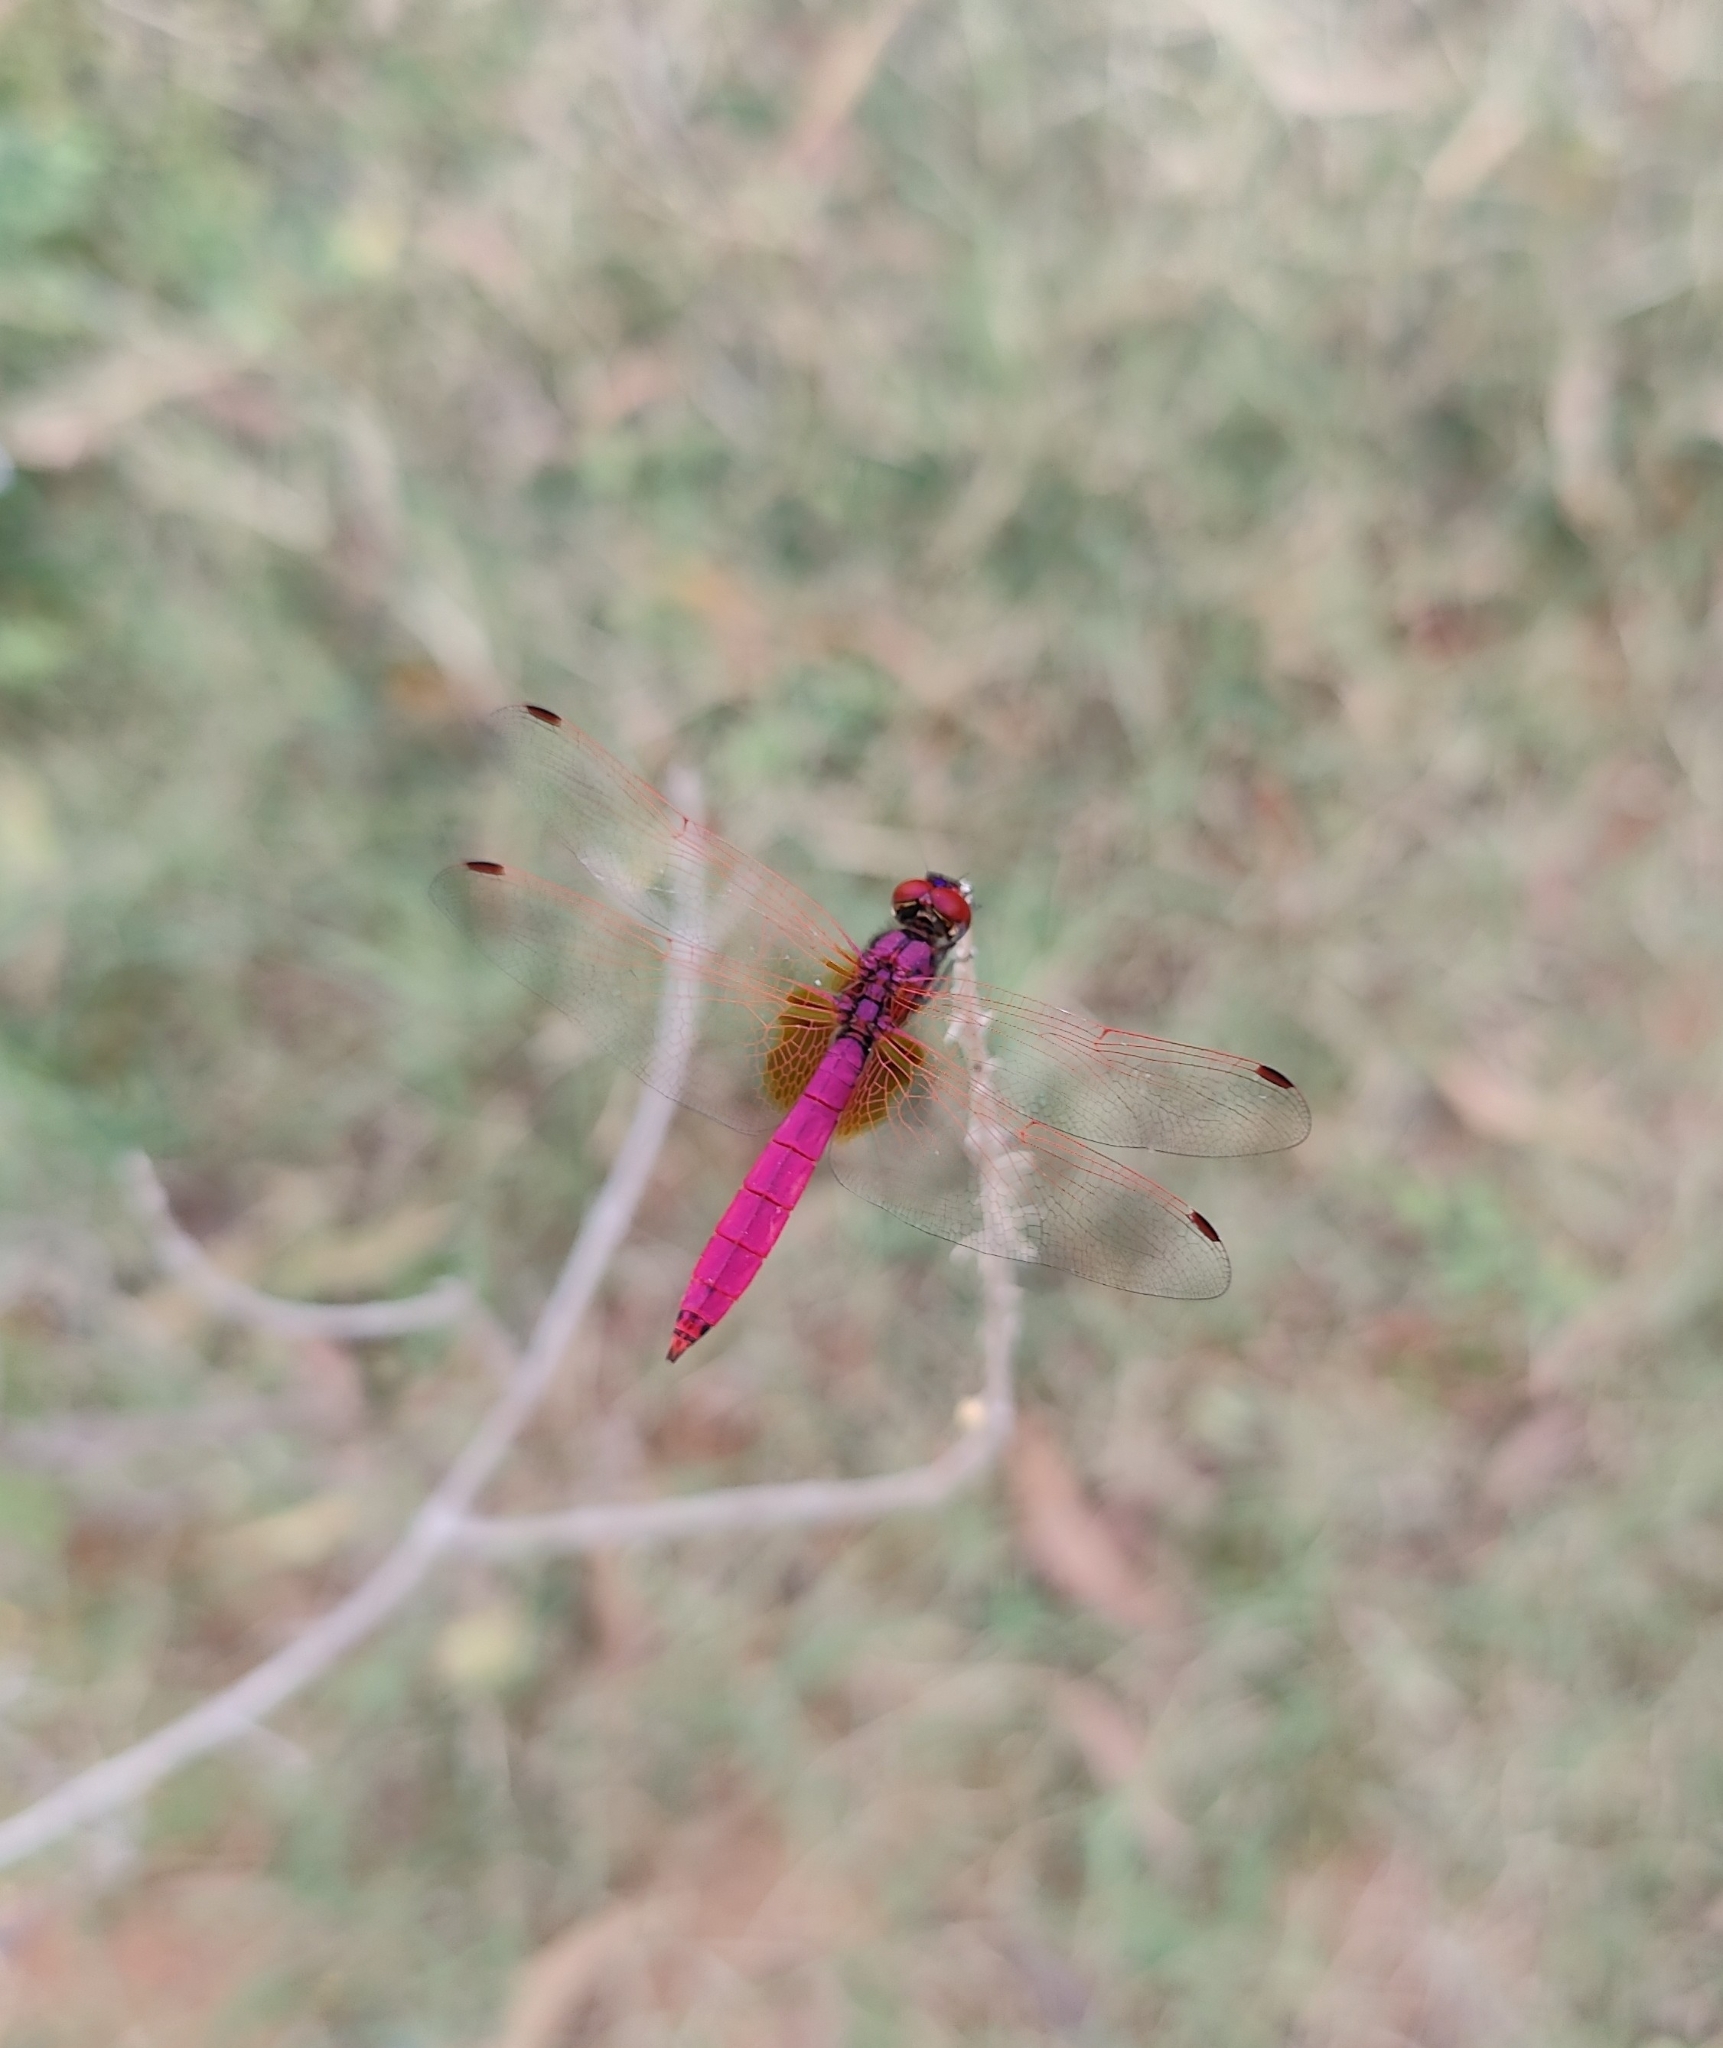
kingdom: Animalia
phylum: Arthropoda
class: Insecta
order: Odonata
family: Libellulidae
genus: Trithemis
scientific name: Trithemis aurora
